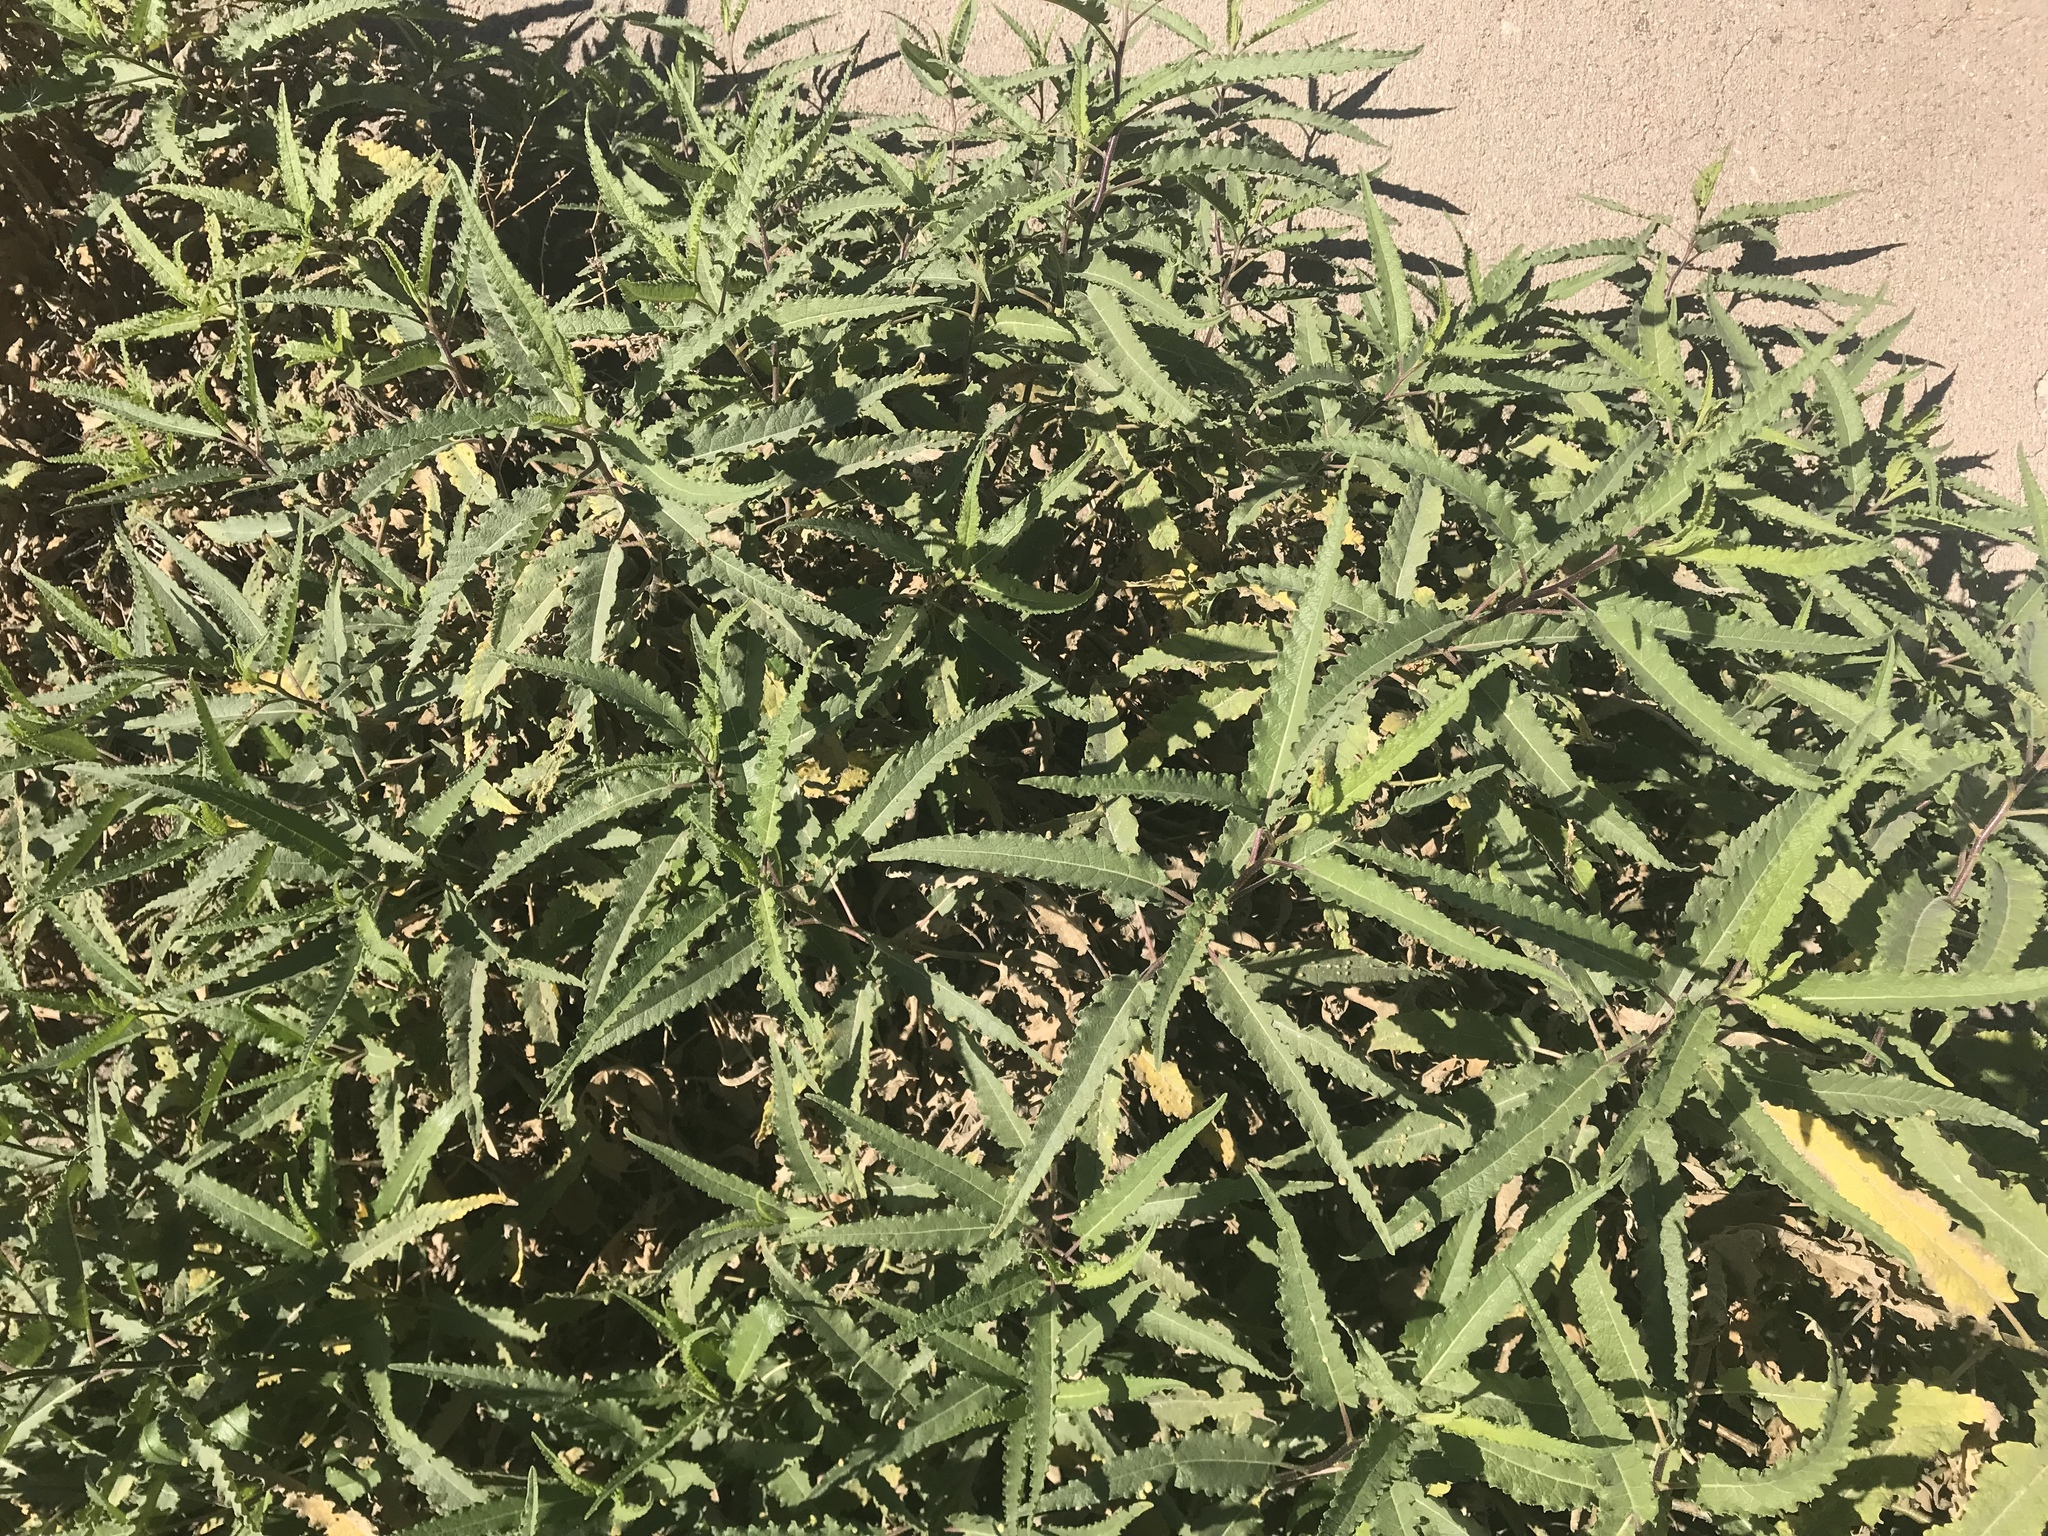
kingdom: Plantae
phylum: Tracheophyta
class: Magnoliopsida
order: Asterales
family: Asteraceae
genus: Ambrosia
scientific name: Ambrosia ambrosioides
